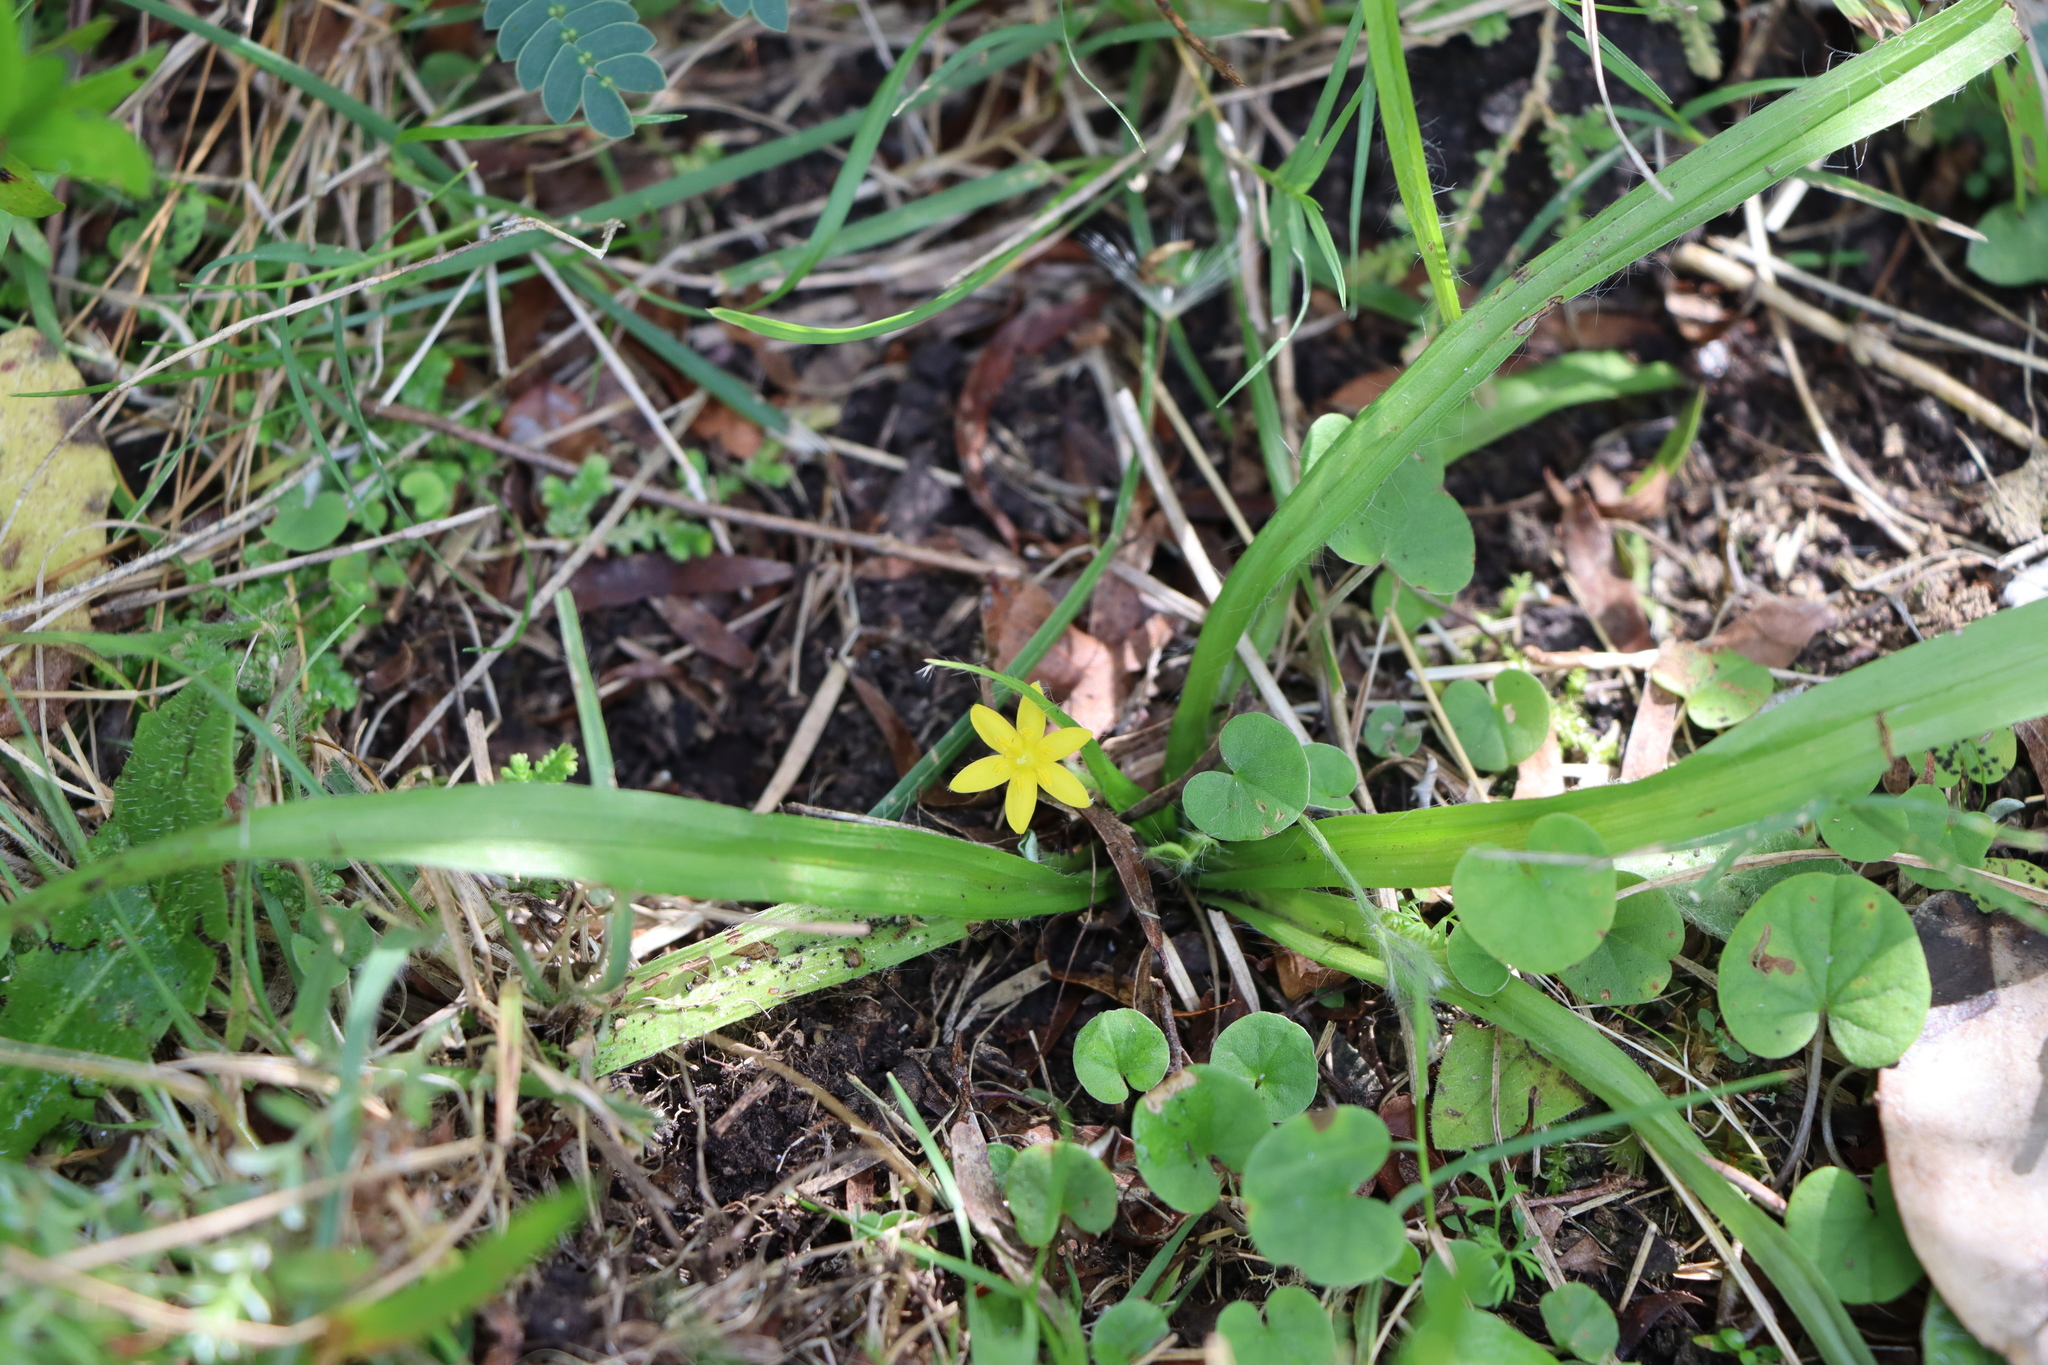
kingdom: Plantae
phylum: Tracheophyta
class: Liliopsida
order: Asparagales
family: Hypoxidaceae
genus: Hypoxis
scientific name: Hypoxis decumbens
